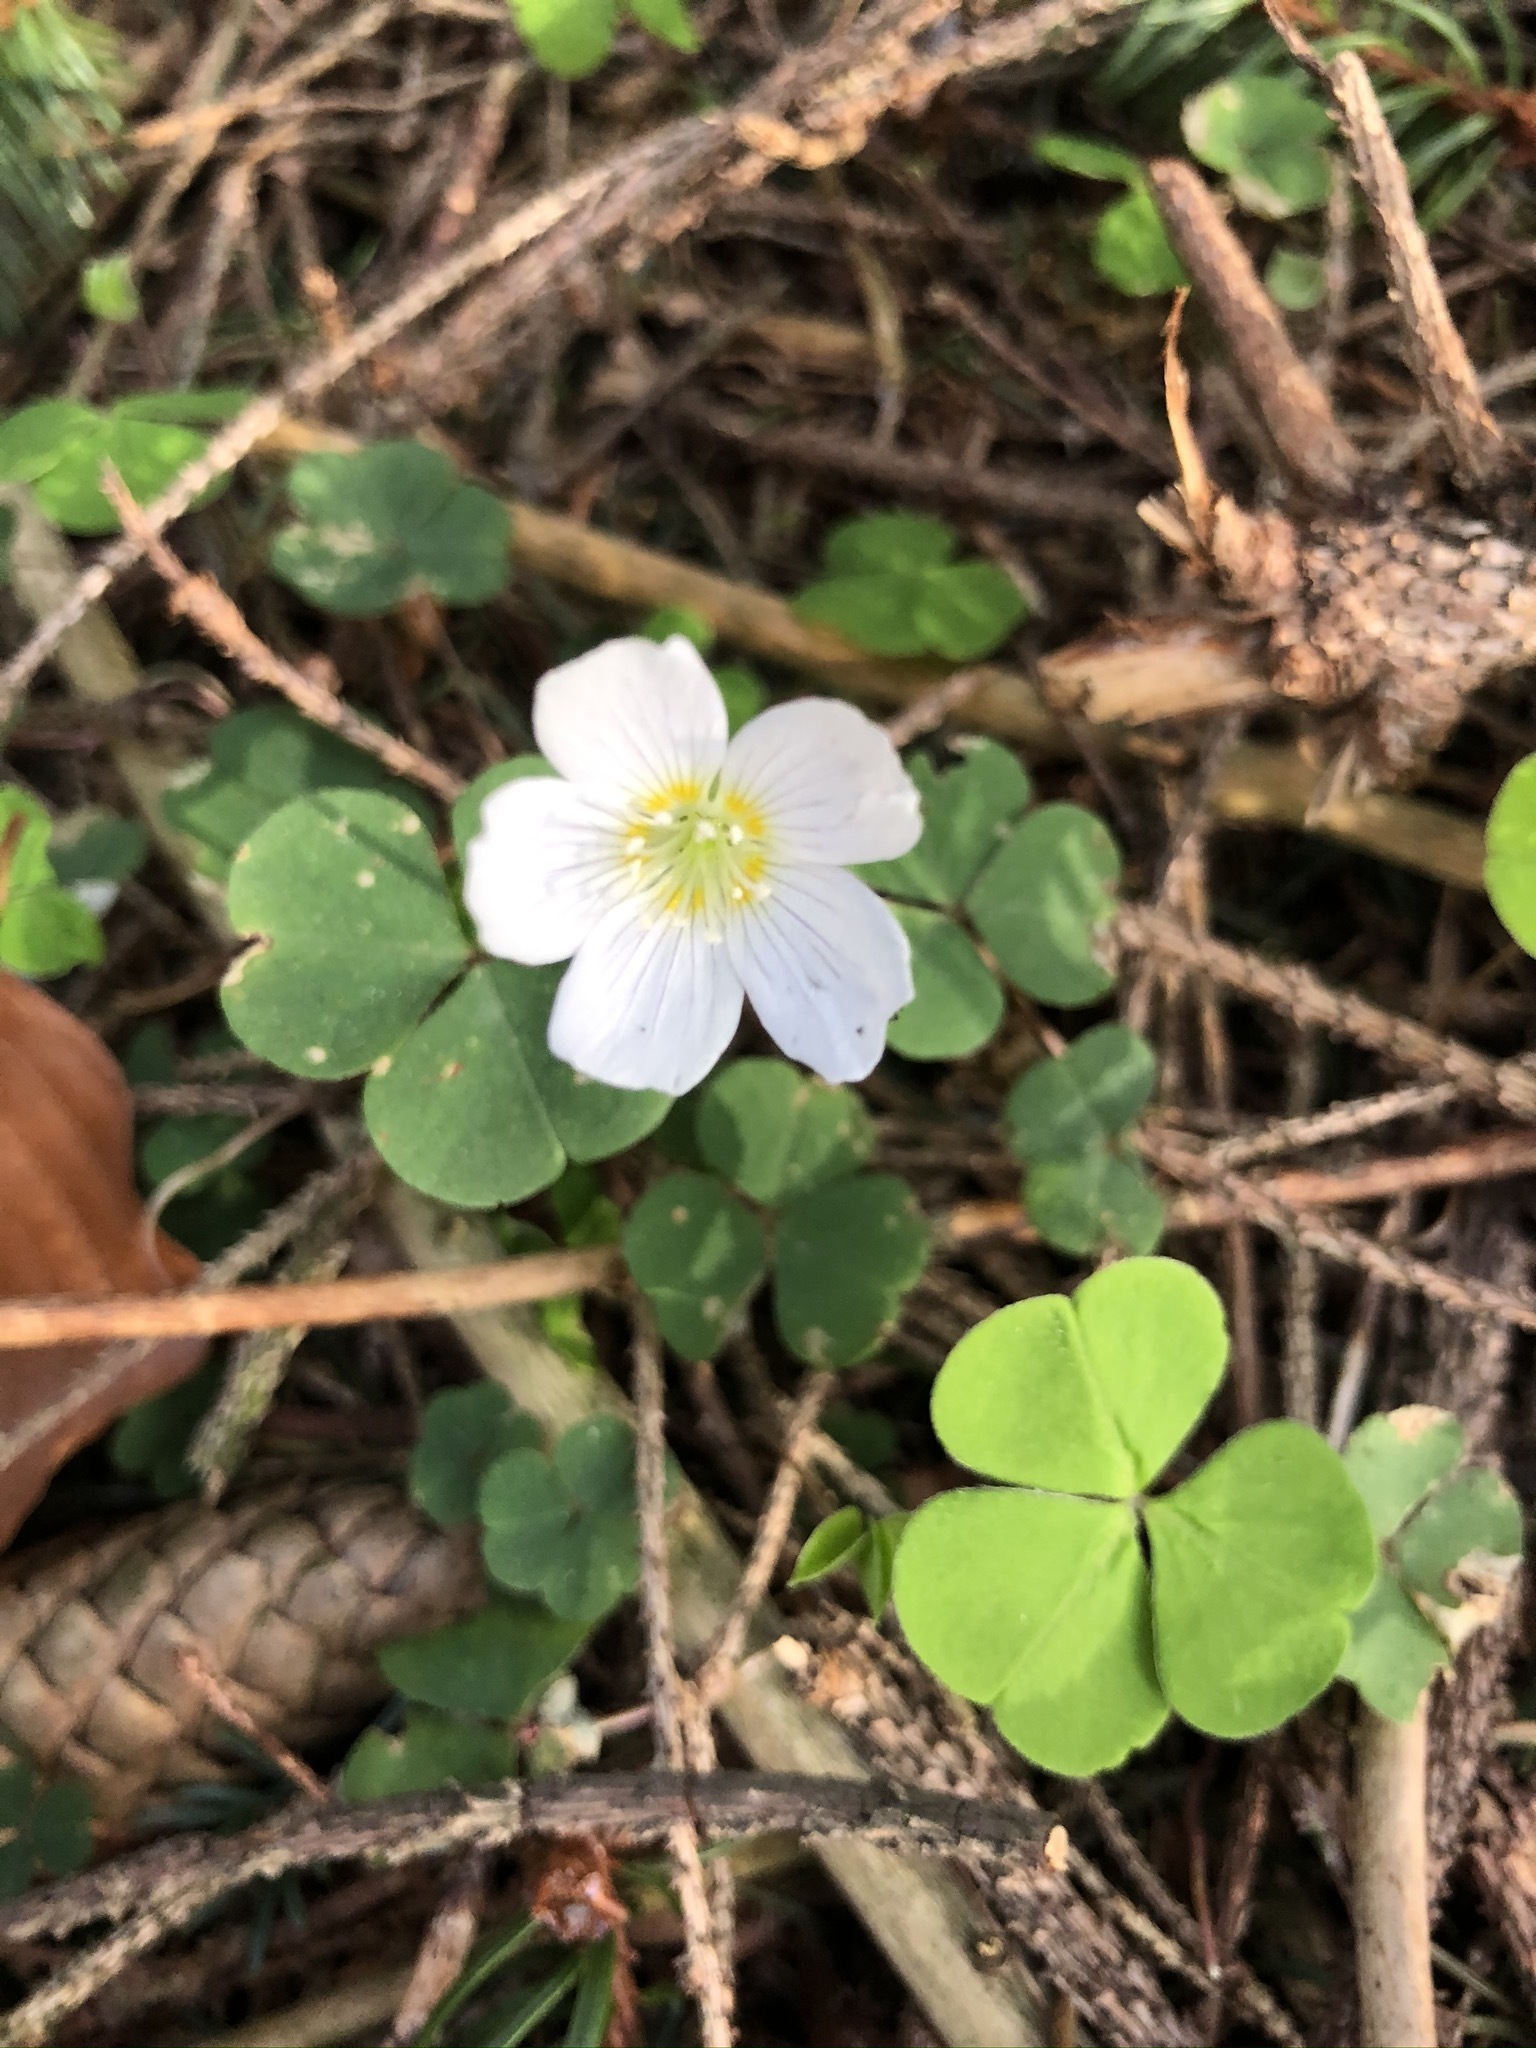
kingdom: Plantae
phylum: Tracheophyta
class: Magnoliopsida
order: Oxalidales
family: Oxalidaceae
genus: Oxalis
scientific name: Oxalis acetosella
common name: Wood-sorrel
